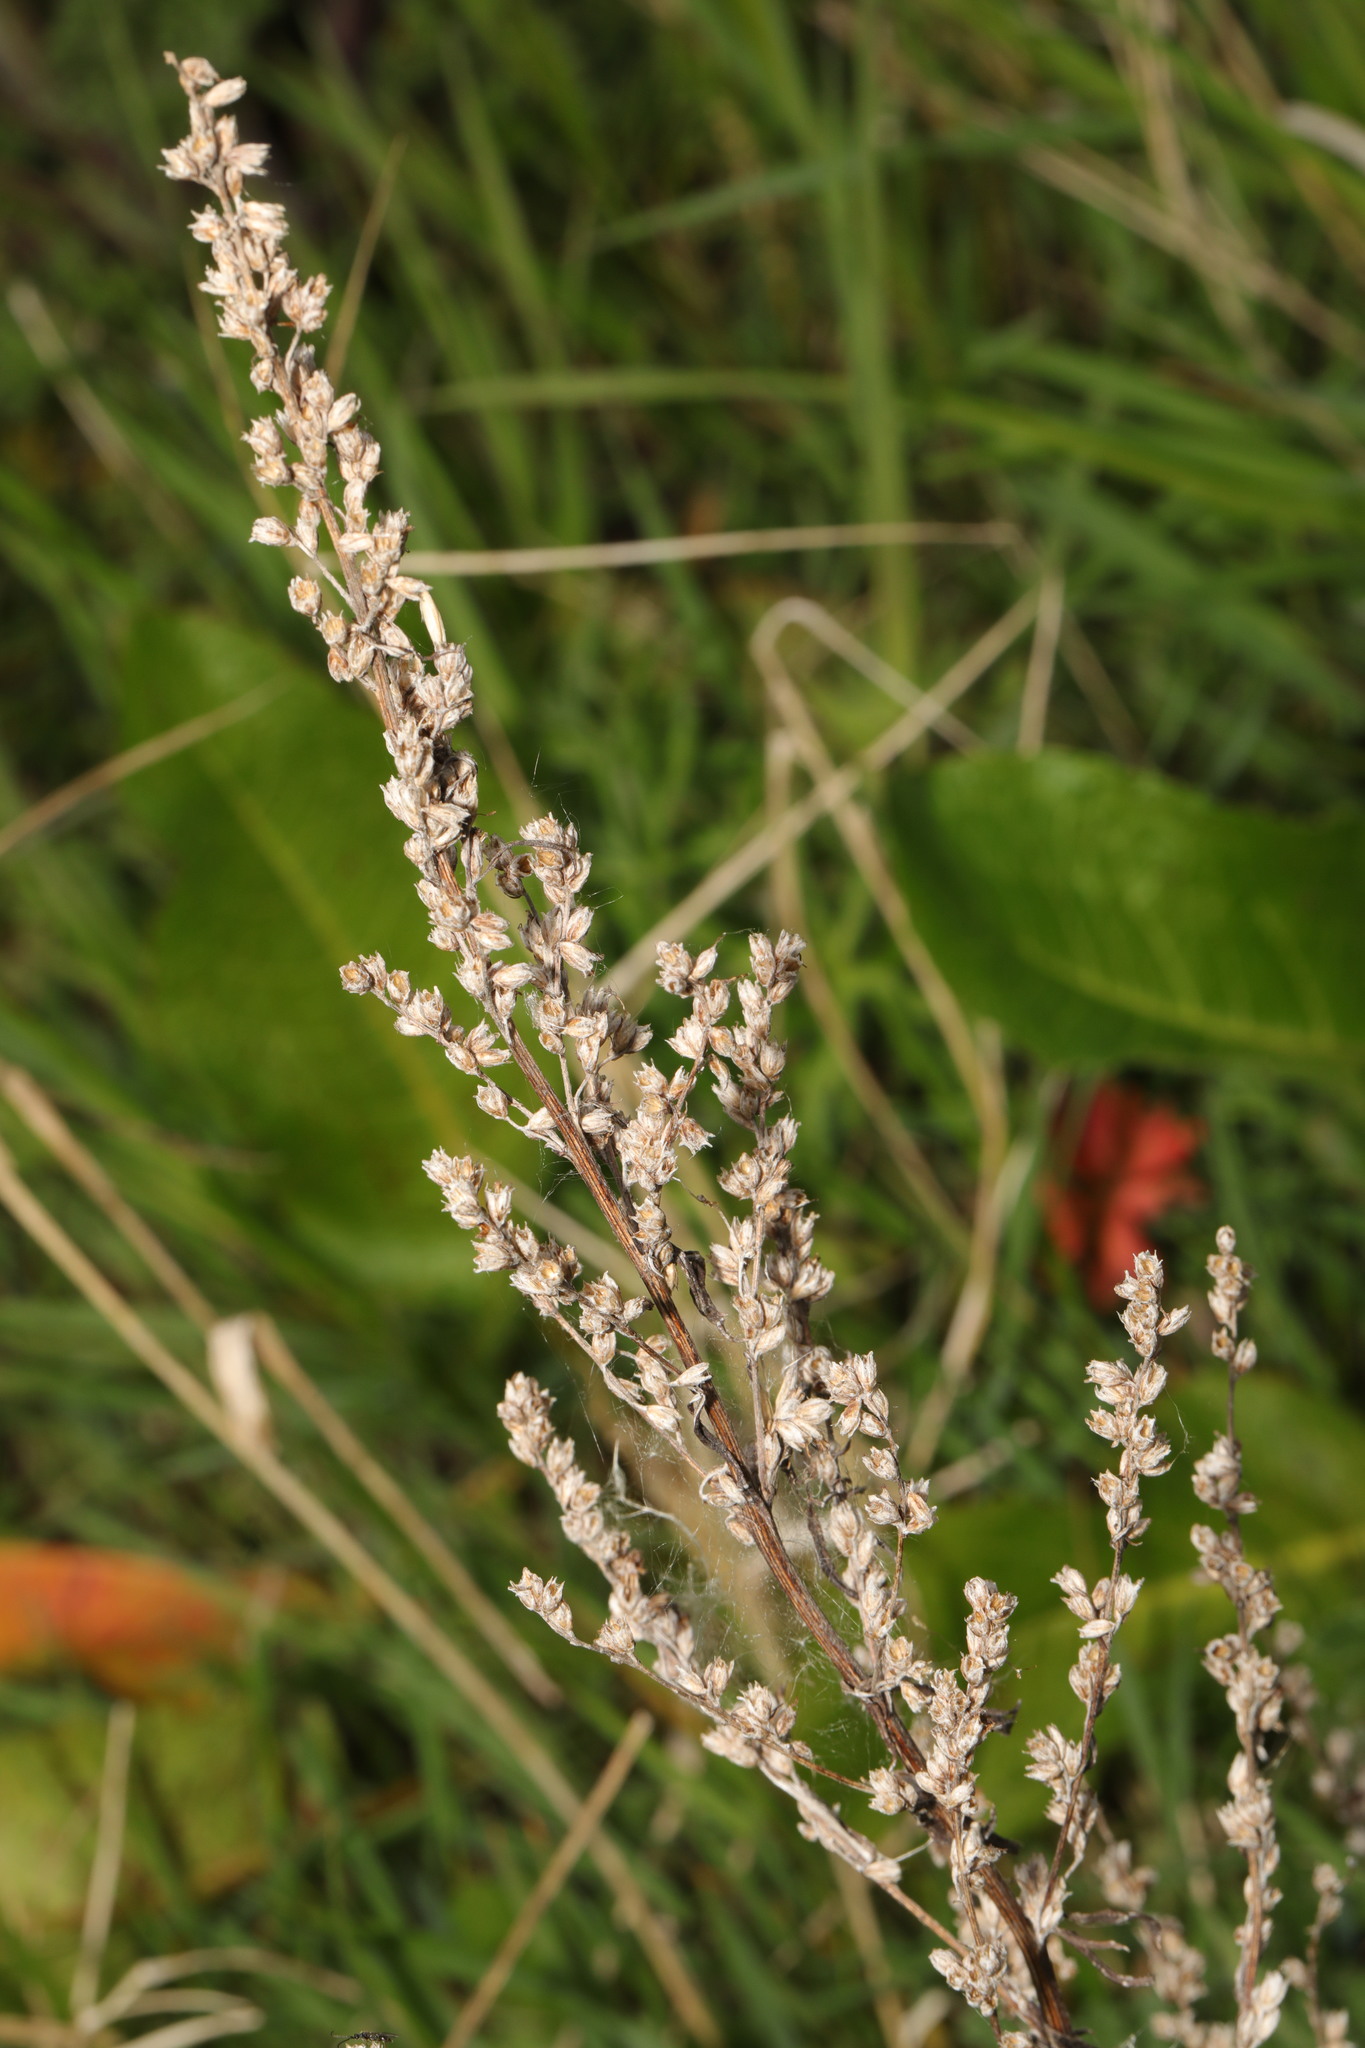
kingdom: Plantae
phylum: Tracheophyta
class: Magnoliopsida
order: Asterales
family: Asteraceae
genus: Artemisia
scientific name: Artemisia vulgaris
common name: Mugwort
